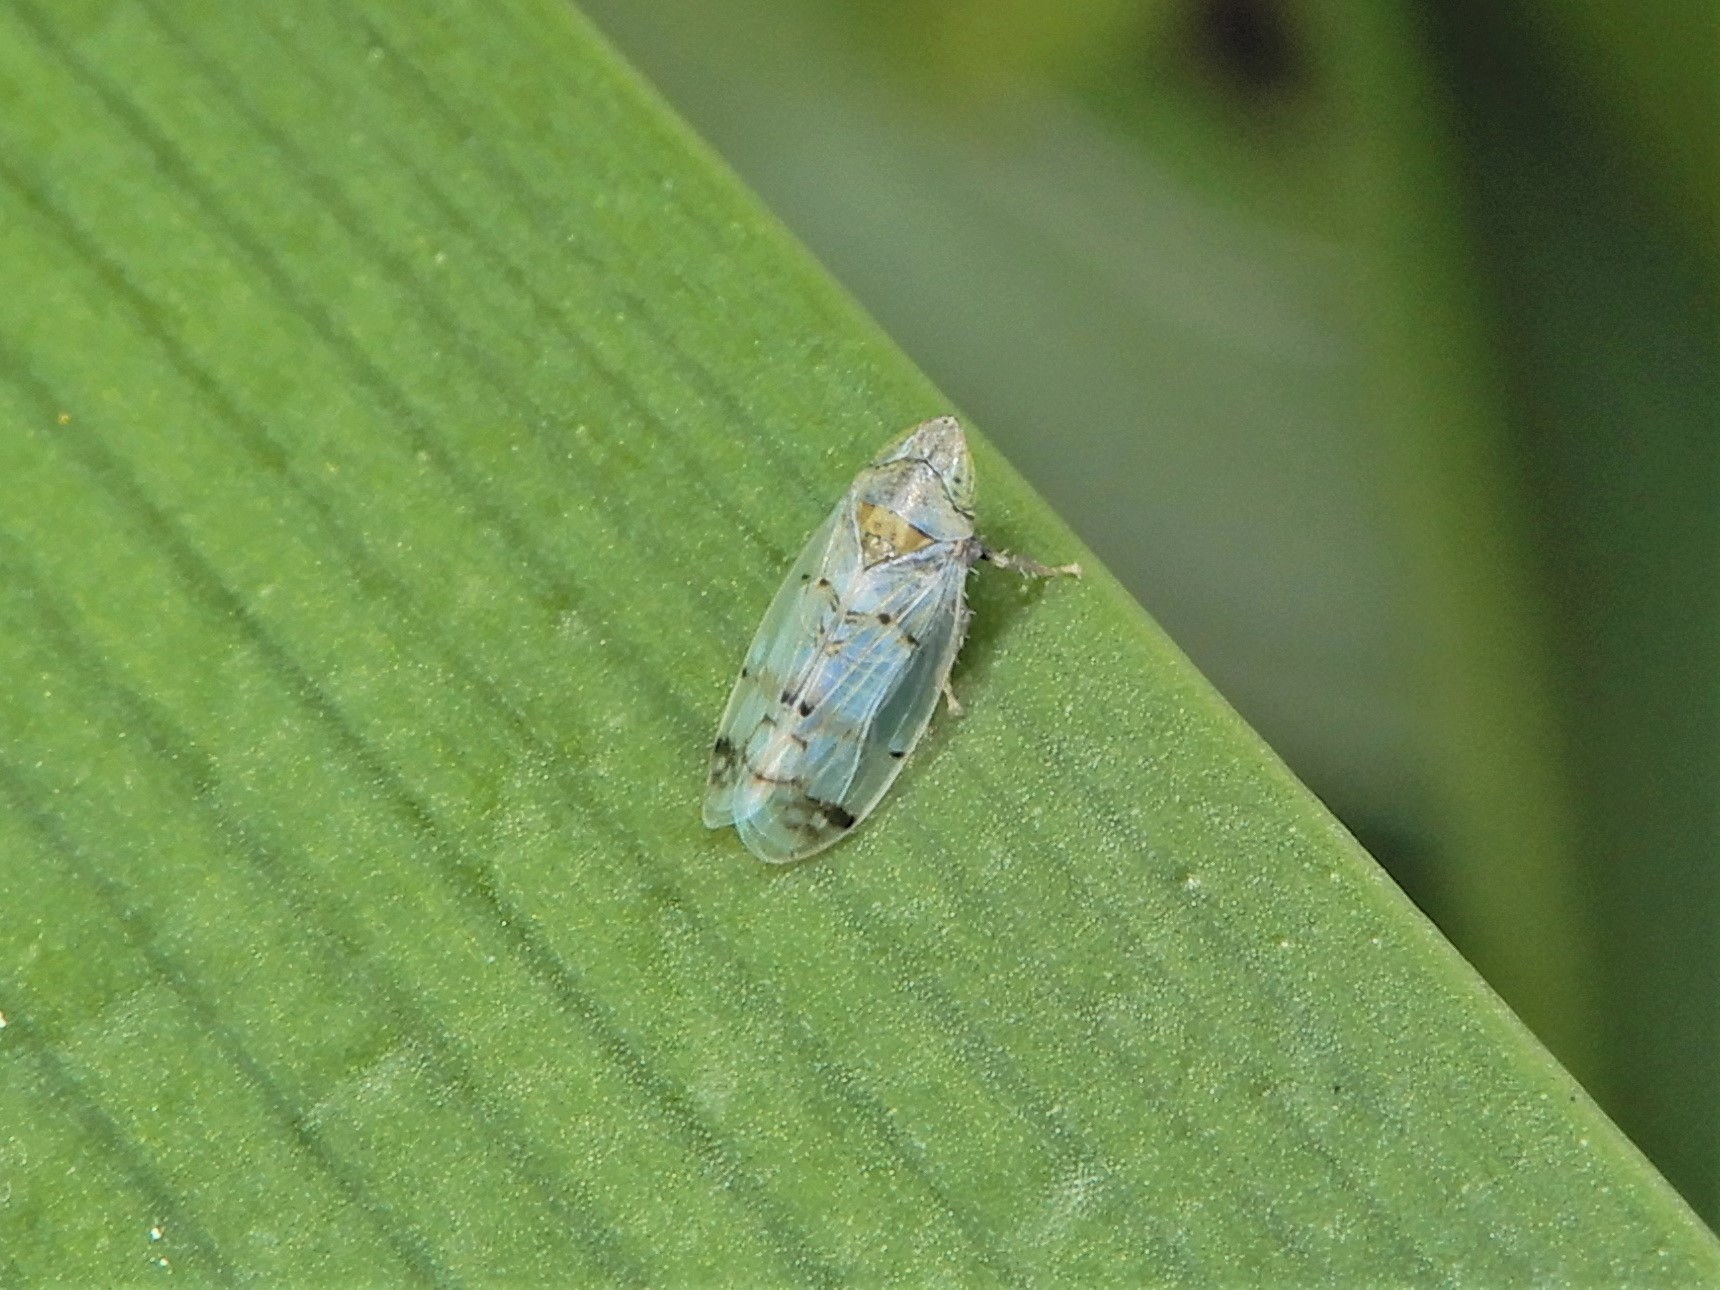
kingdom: Animalia
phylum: Arthropoda
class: Insecta
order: Hemiptera
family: Cicadellidae
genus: Japananus
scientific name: Japananus hyalinus
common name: The japanese maple leafhopper
